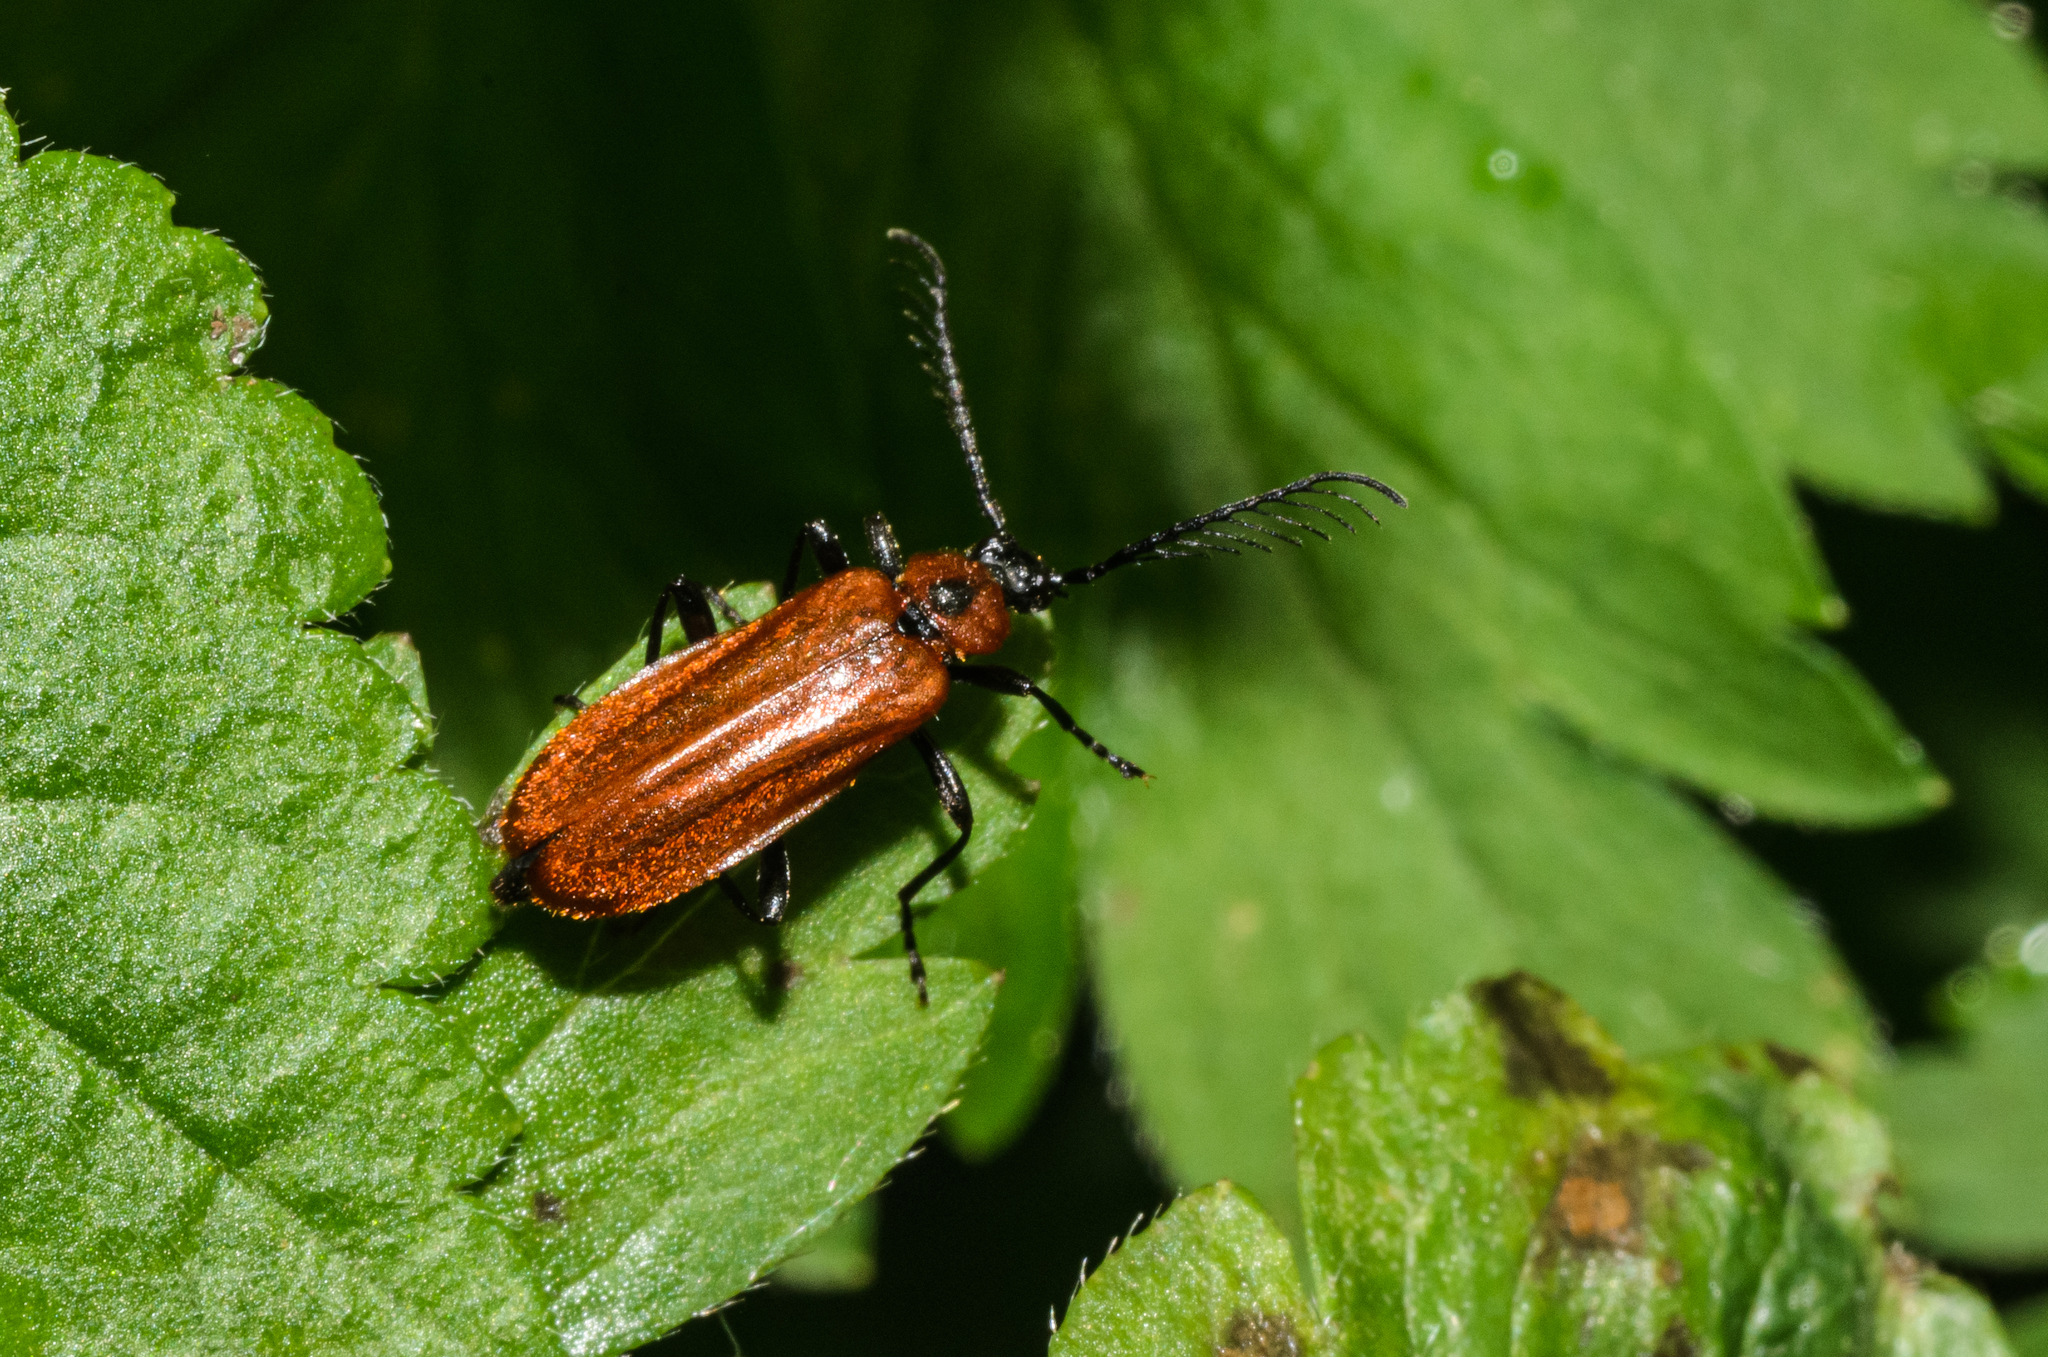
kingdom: Animalia
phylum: Arthropoda
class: Insecta
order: Coleoptera
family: Pyrochroidae
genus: Schizotus
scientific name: Schizotus pectinicornis
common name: Scarce cardinal beetle
